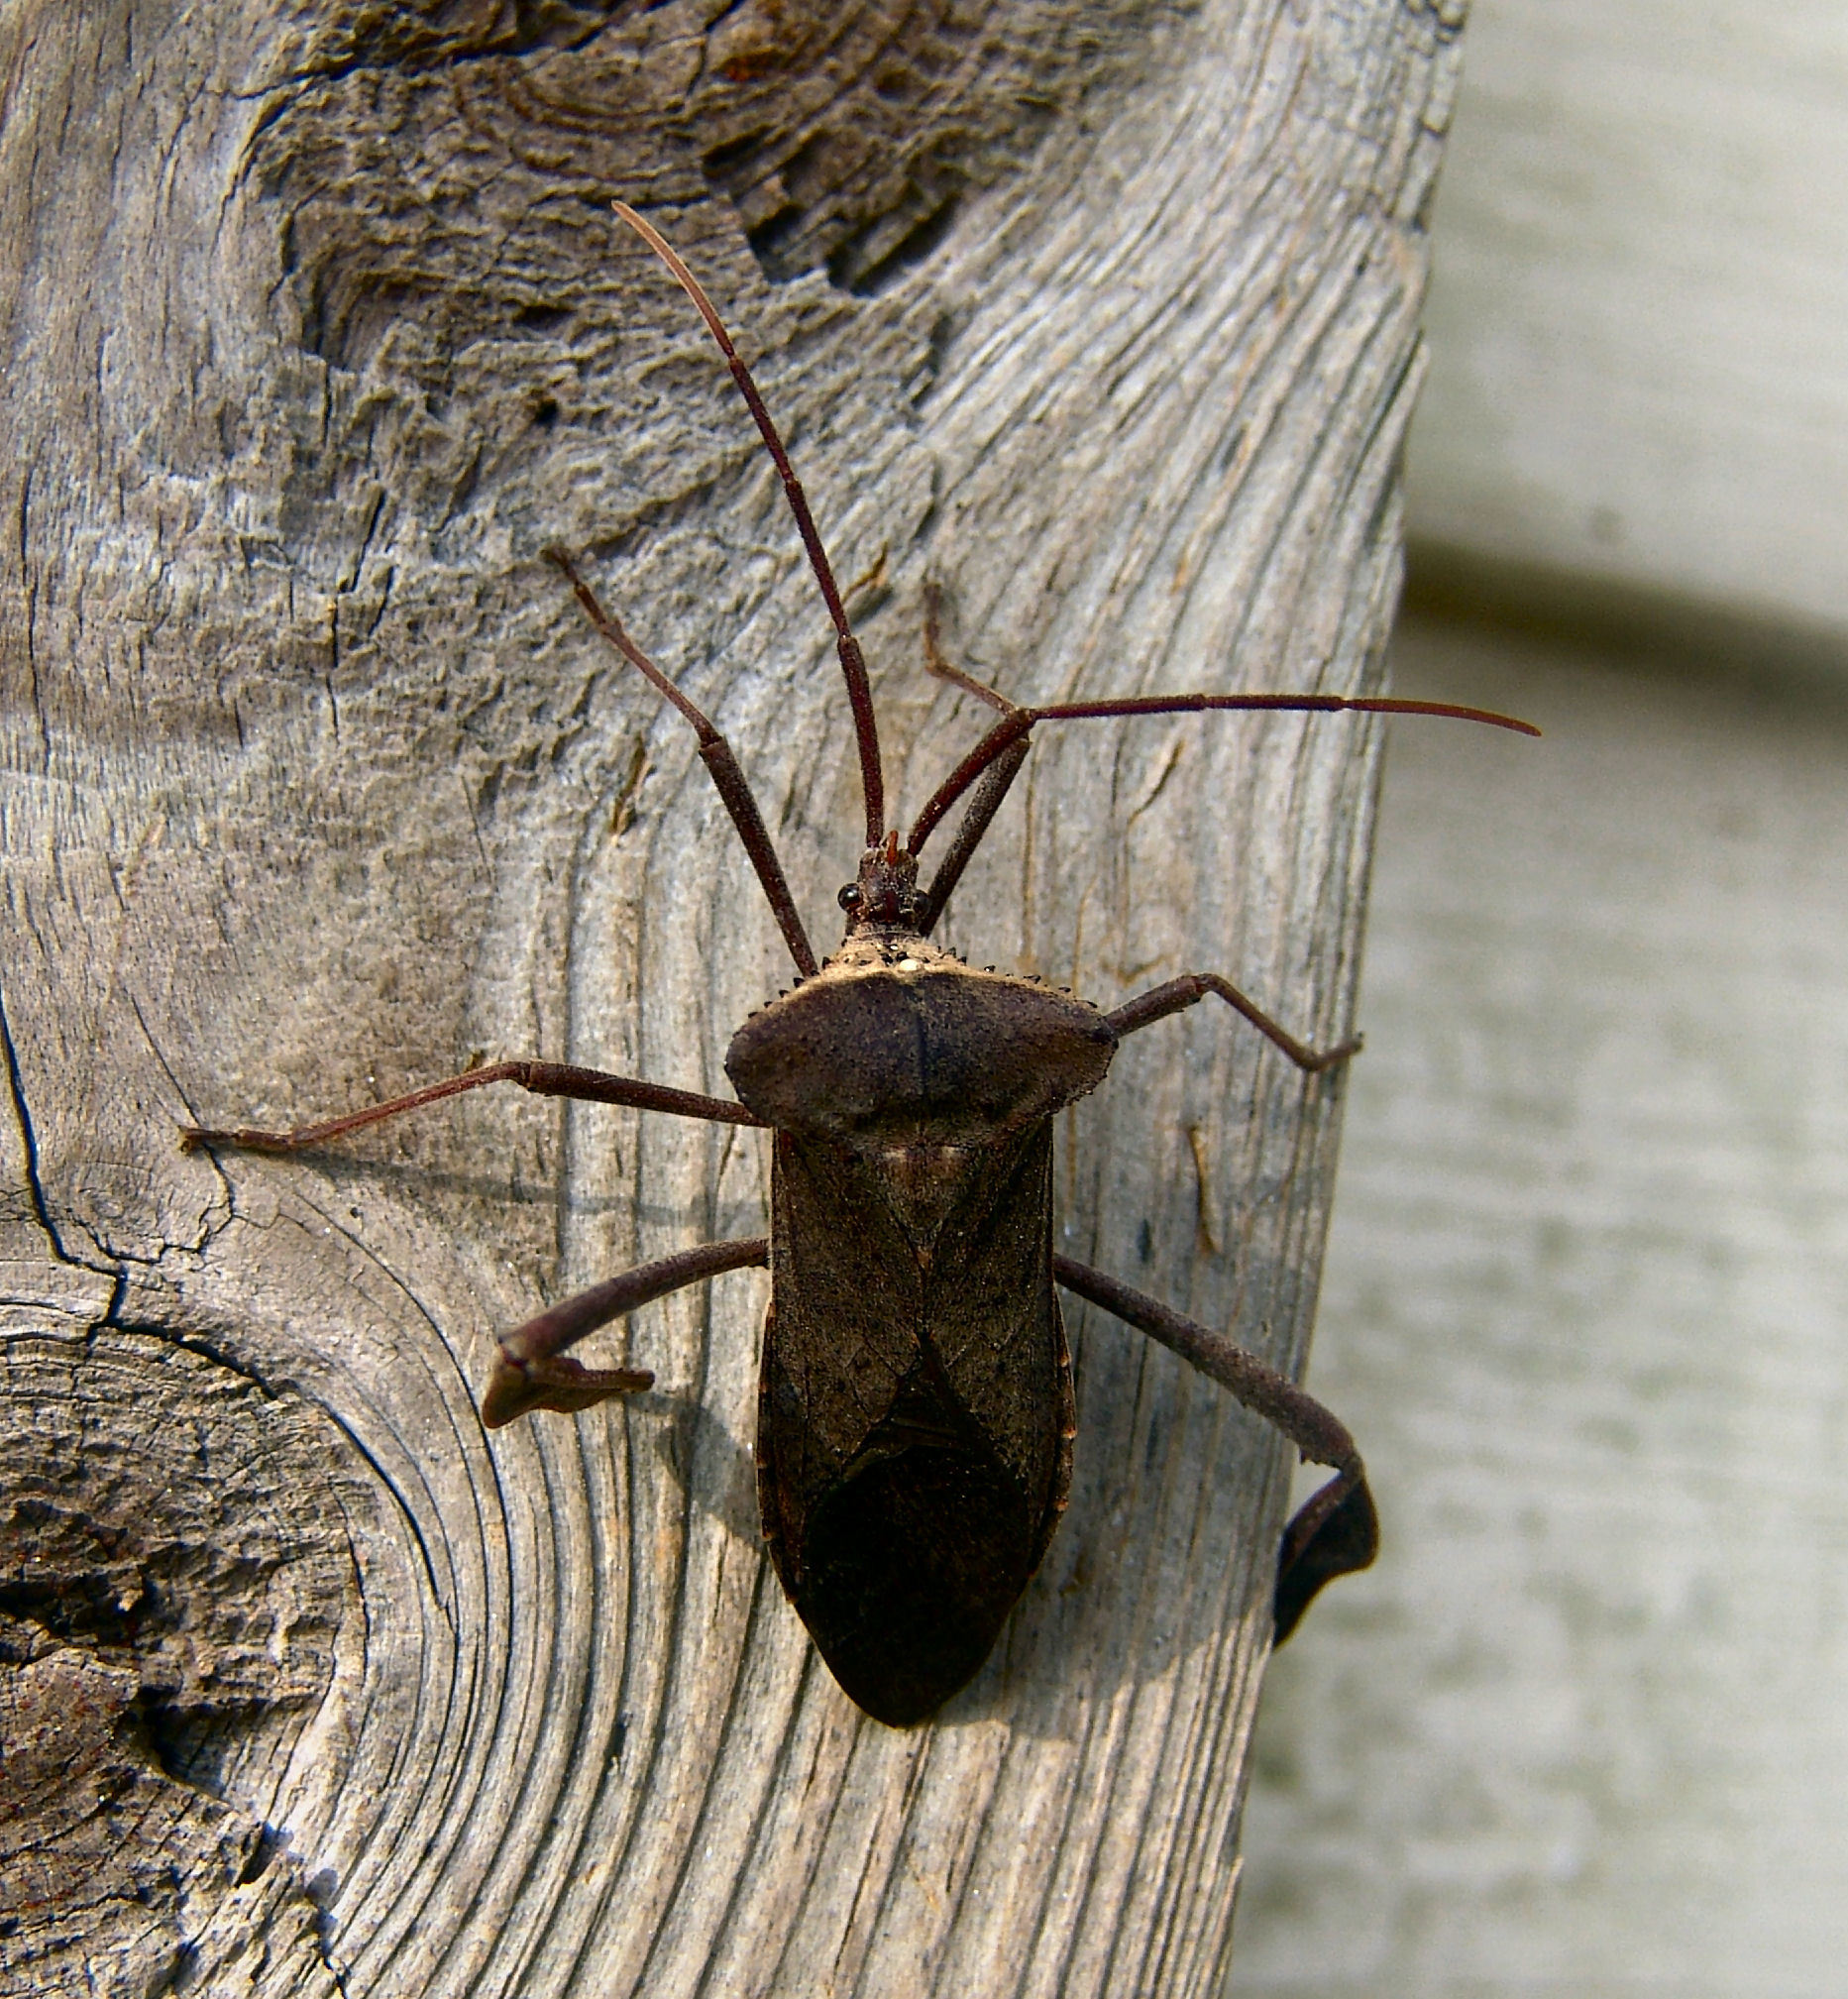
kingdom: Animalia
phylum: Arthropoda
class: Insecta
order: Hemiptera
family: Coreidae
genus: Acanthocephala
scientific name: Acanthocephala declivis
